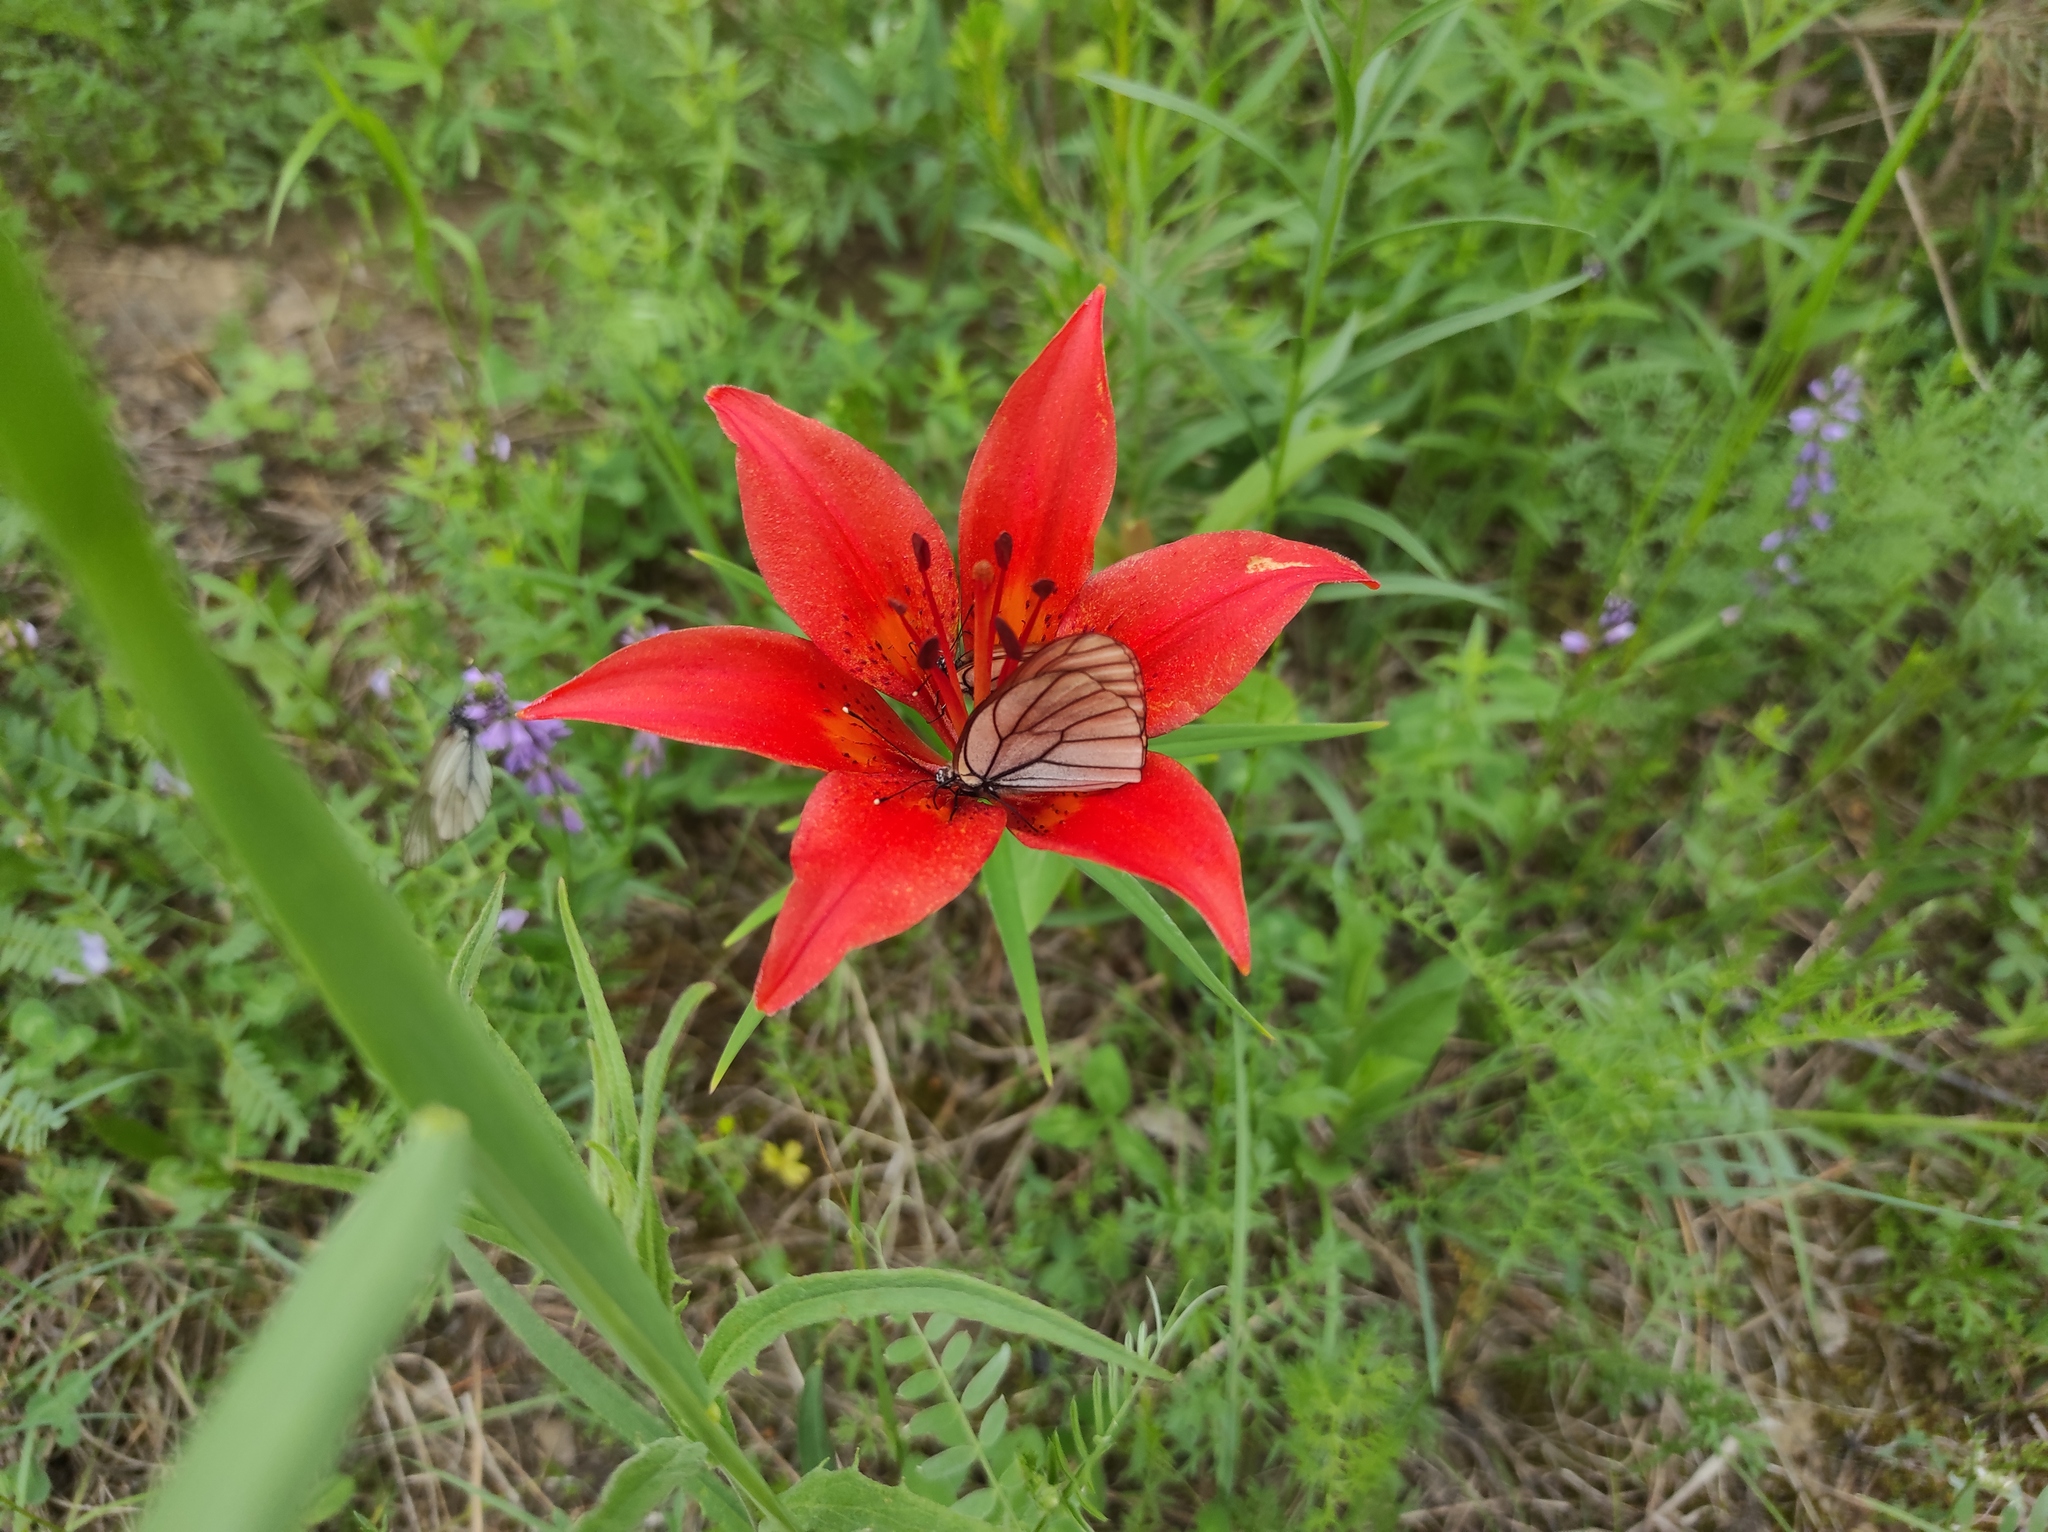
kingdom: Plantae
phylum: Tracheophyta
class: Liliopsida
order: Liliales
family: Liliaceae
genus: Lilium
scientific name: Lilium pensylvanicum
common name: Candlestick lily
